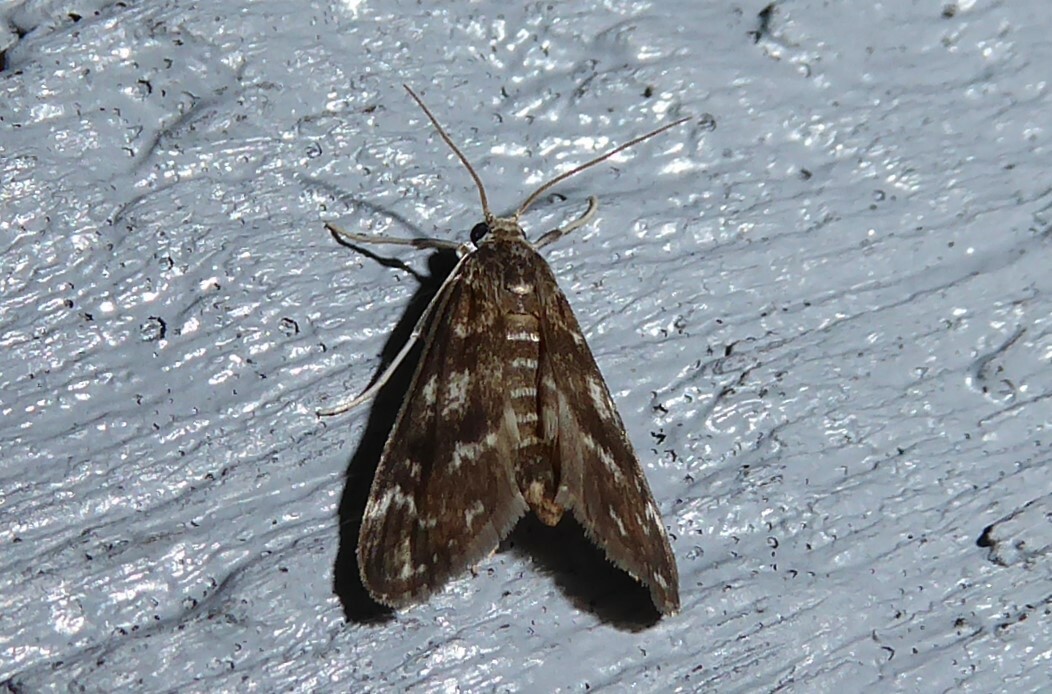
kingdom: Animalia
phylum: Arthropoda
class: Insecta
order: Lepidoptera
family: Crambidae
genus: Hygraula
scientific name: Hygraula nitens
